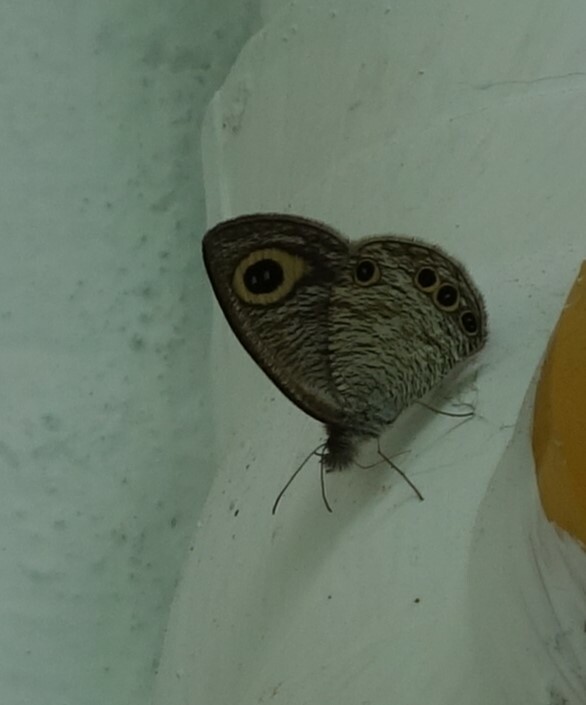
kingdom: Animalia
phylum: Arthropoda
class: Insecta
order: Lepidoptera
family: Nymphalidae
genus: Ypthima
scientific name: Ypthima huebneri
